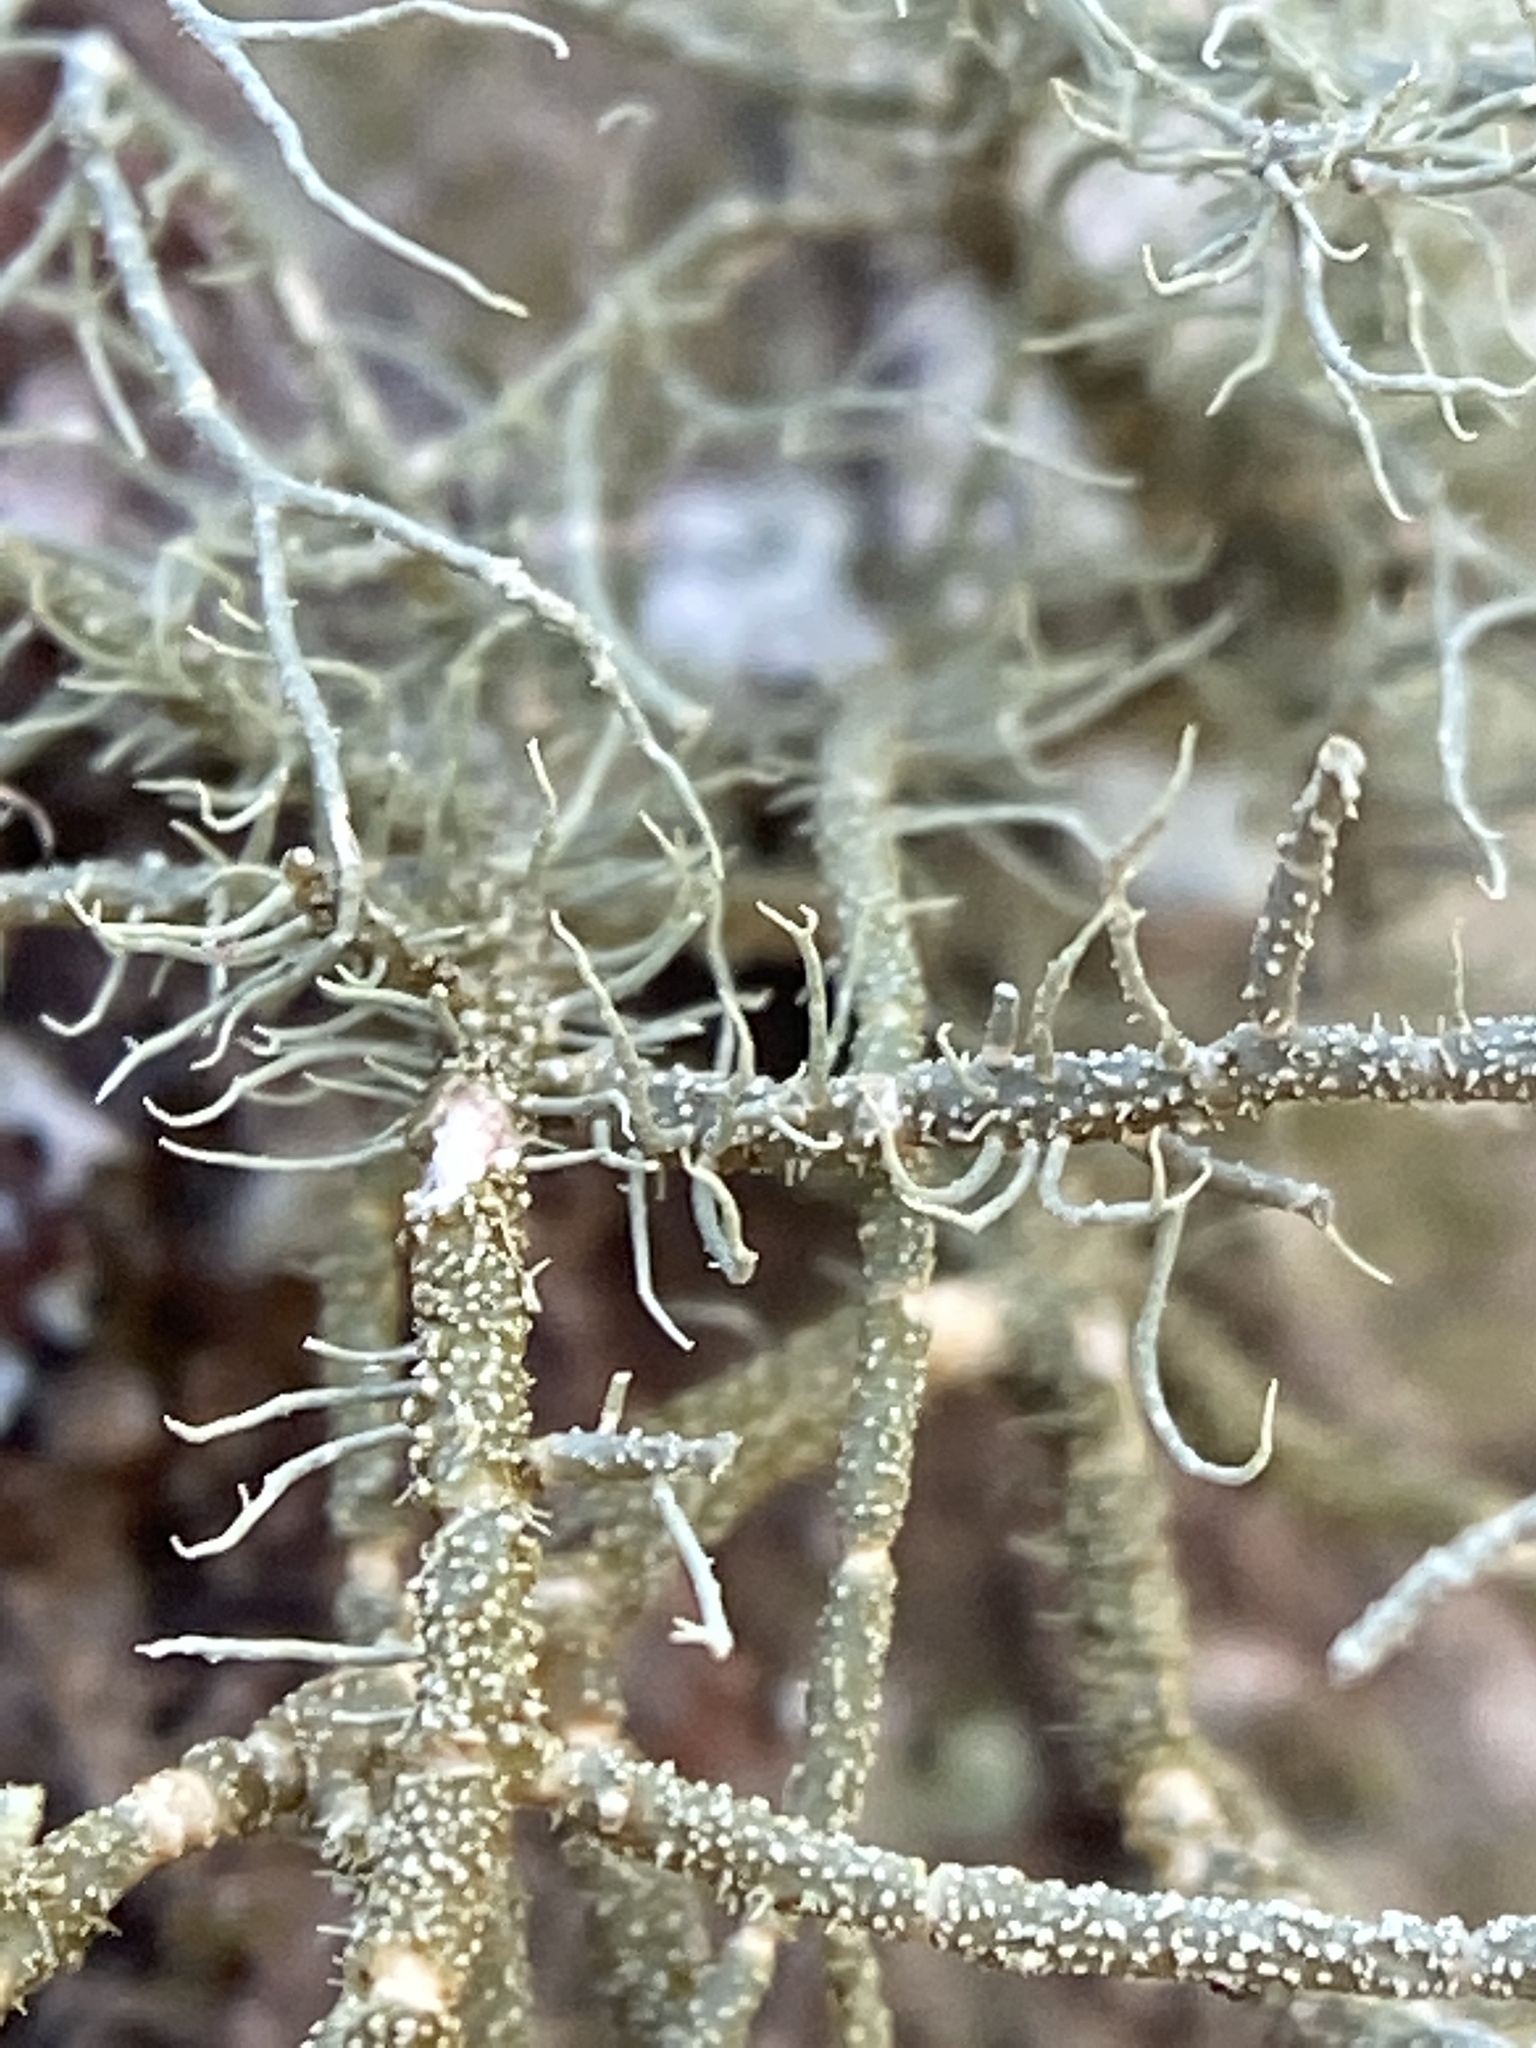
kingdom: Fungi
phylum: Ascomycota
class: Lecanoromycetes
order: Lecanorales
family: Parmeliaceae
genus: Usnea
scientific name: Usnea rubicunda
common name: Red beard lichen
